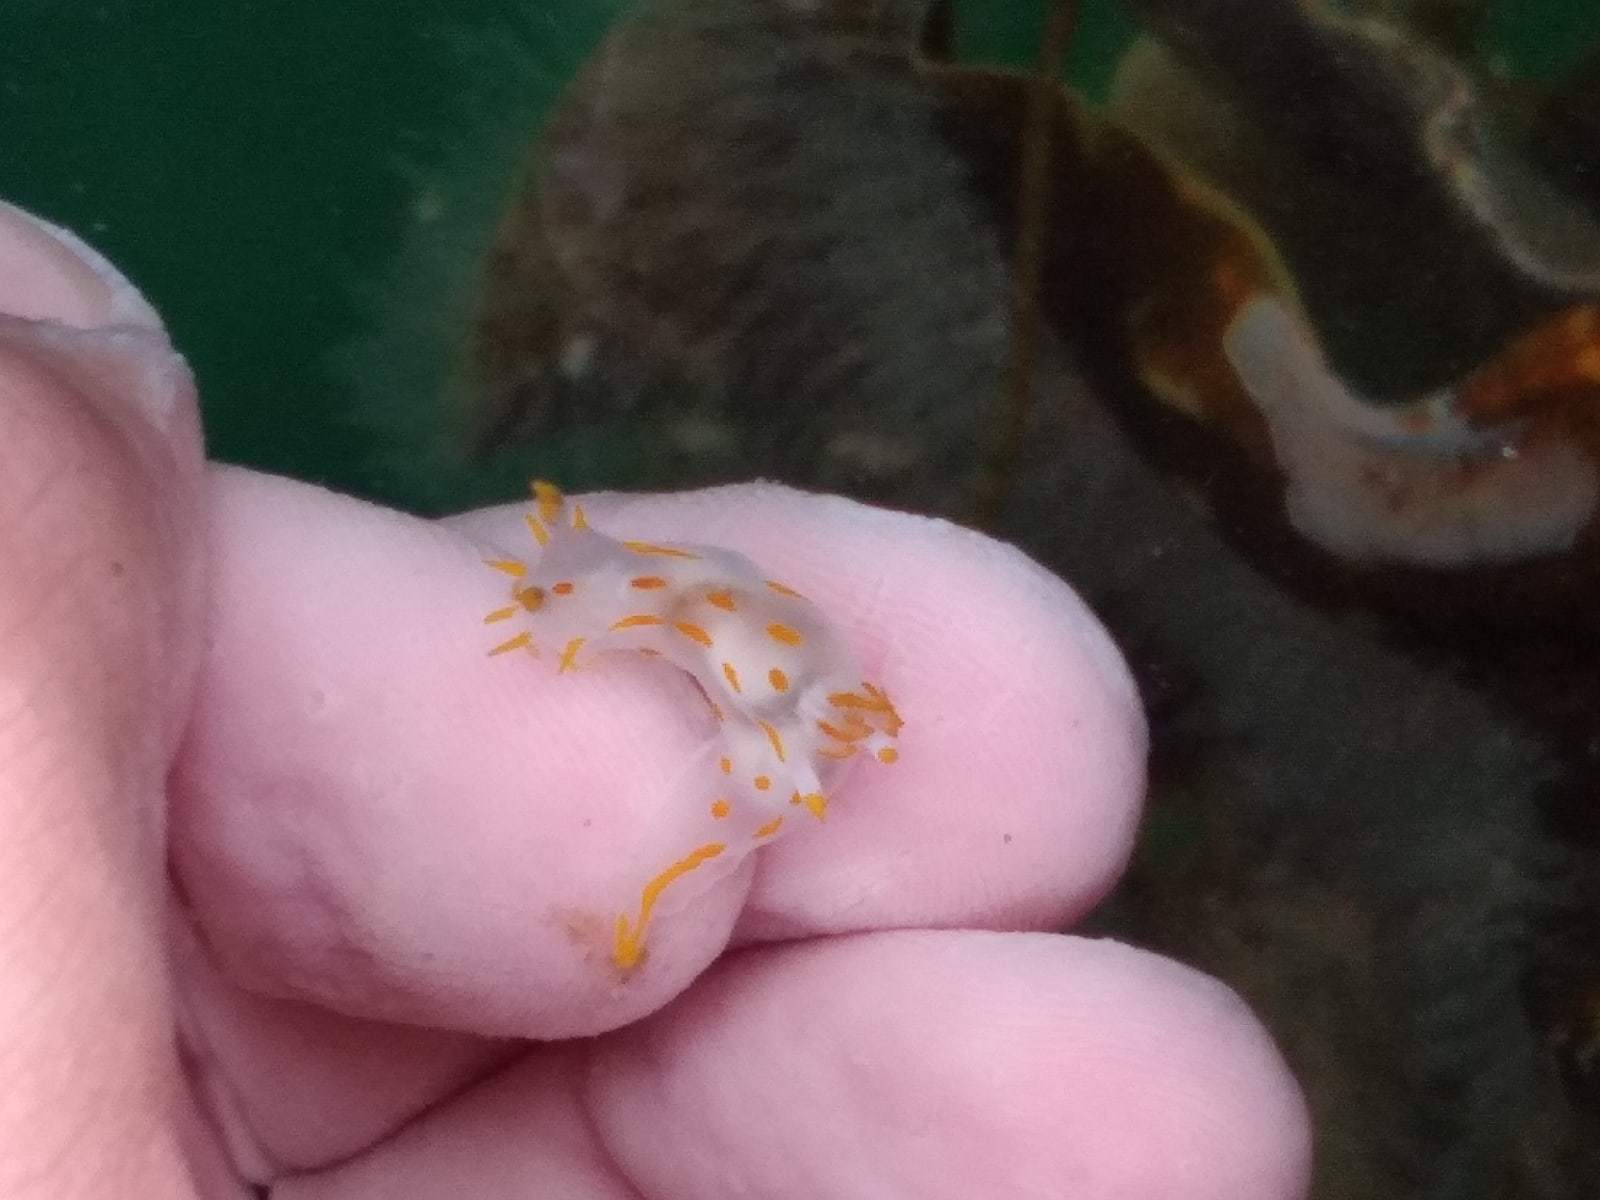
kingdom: Animalia
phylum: Mollusca
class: Gastropoda
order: Nudibranchia
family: Polyceridae
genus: Polycera
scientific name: Polycera quadrilineata
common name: Four-striped polycera
